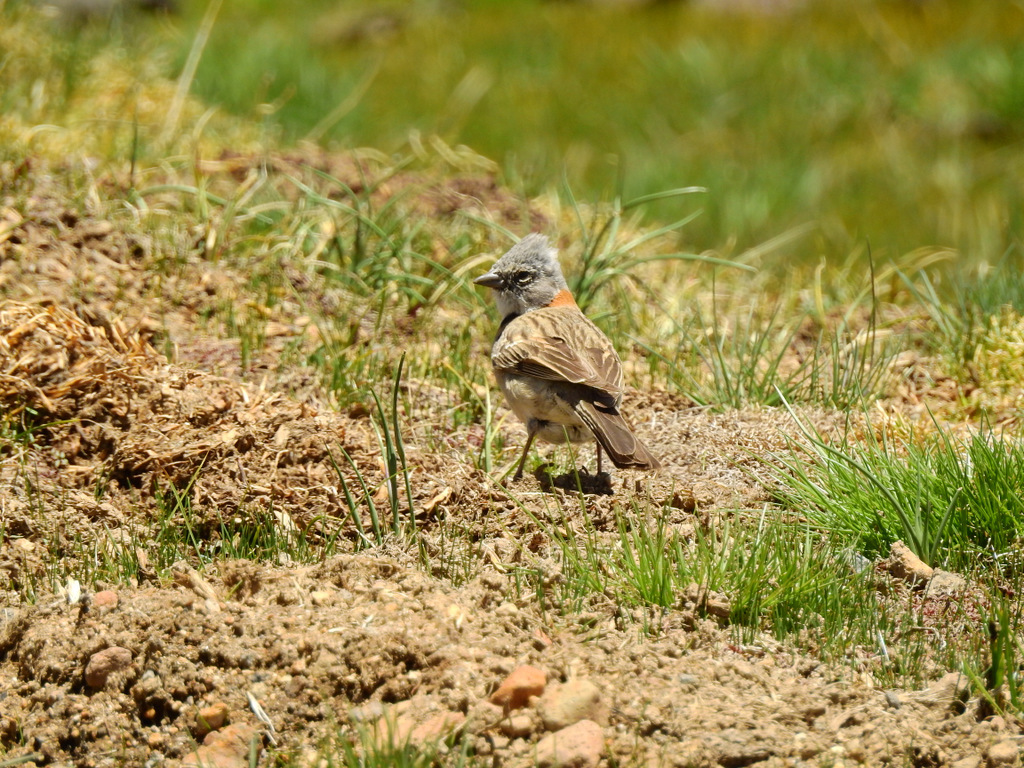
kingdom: Animalia
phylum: Chordata
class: Aves
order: Passeriformes
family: Passerellidae
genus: Zonotrichia
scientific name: Zonotrichia capensis
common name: Rufous-collared sparrow
